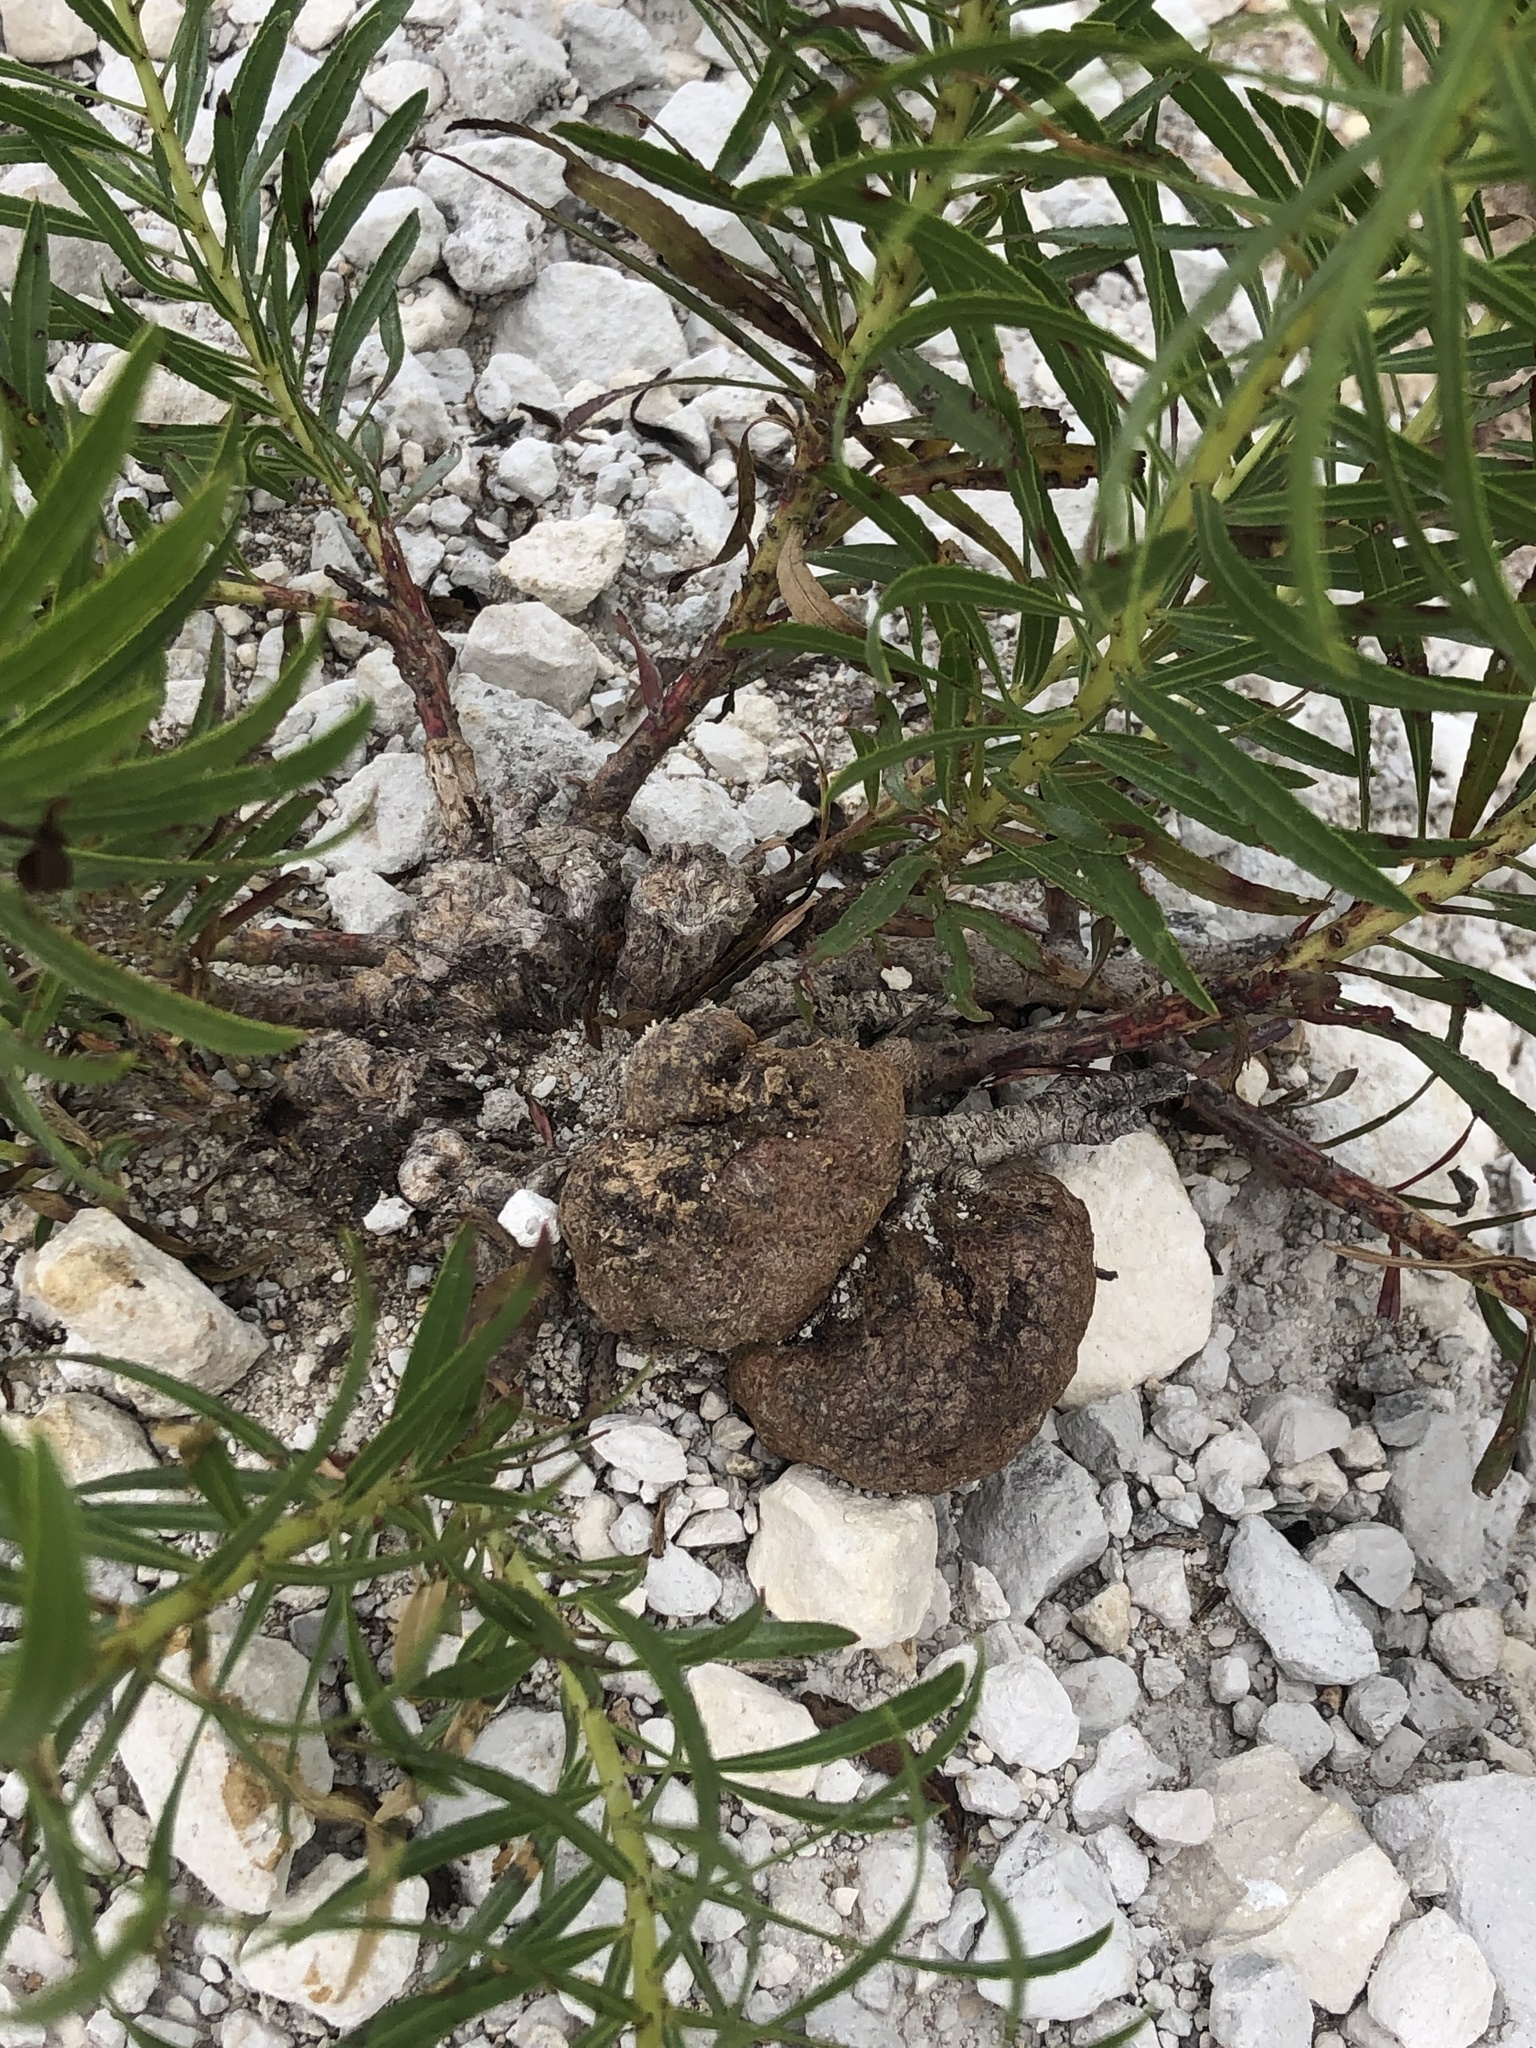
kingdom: Plantae
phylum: Tracheophyta
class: Magnoliopsida
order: Malpighiales
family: Euphorbiaceae
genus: Stillingia
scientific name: Stillingia texana
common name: Texas stillingia
